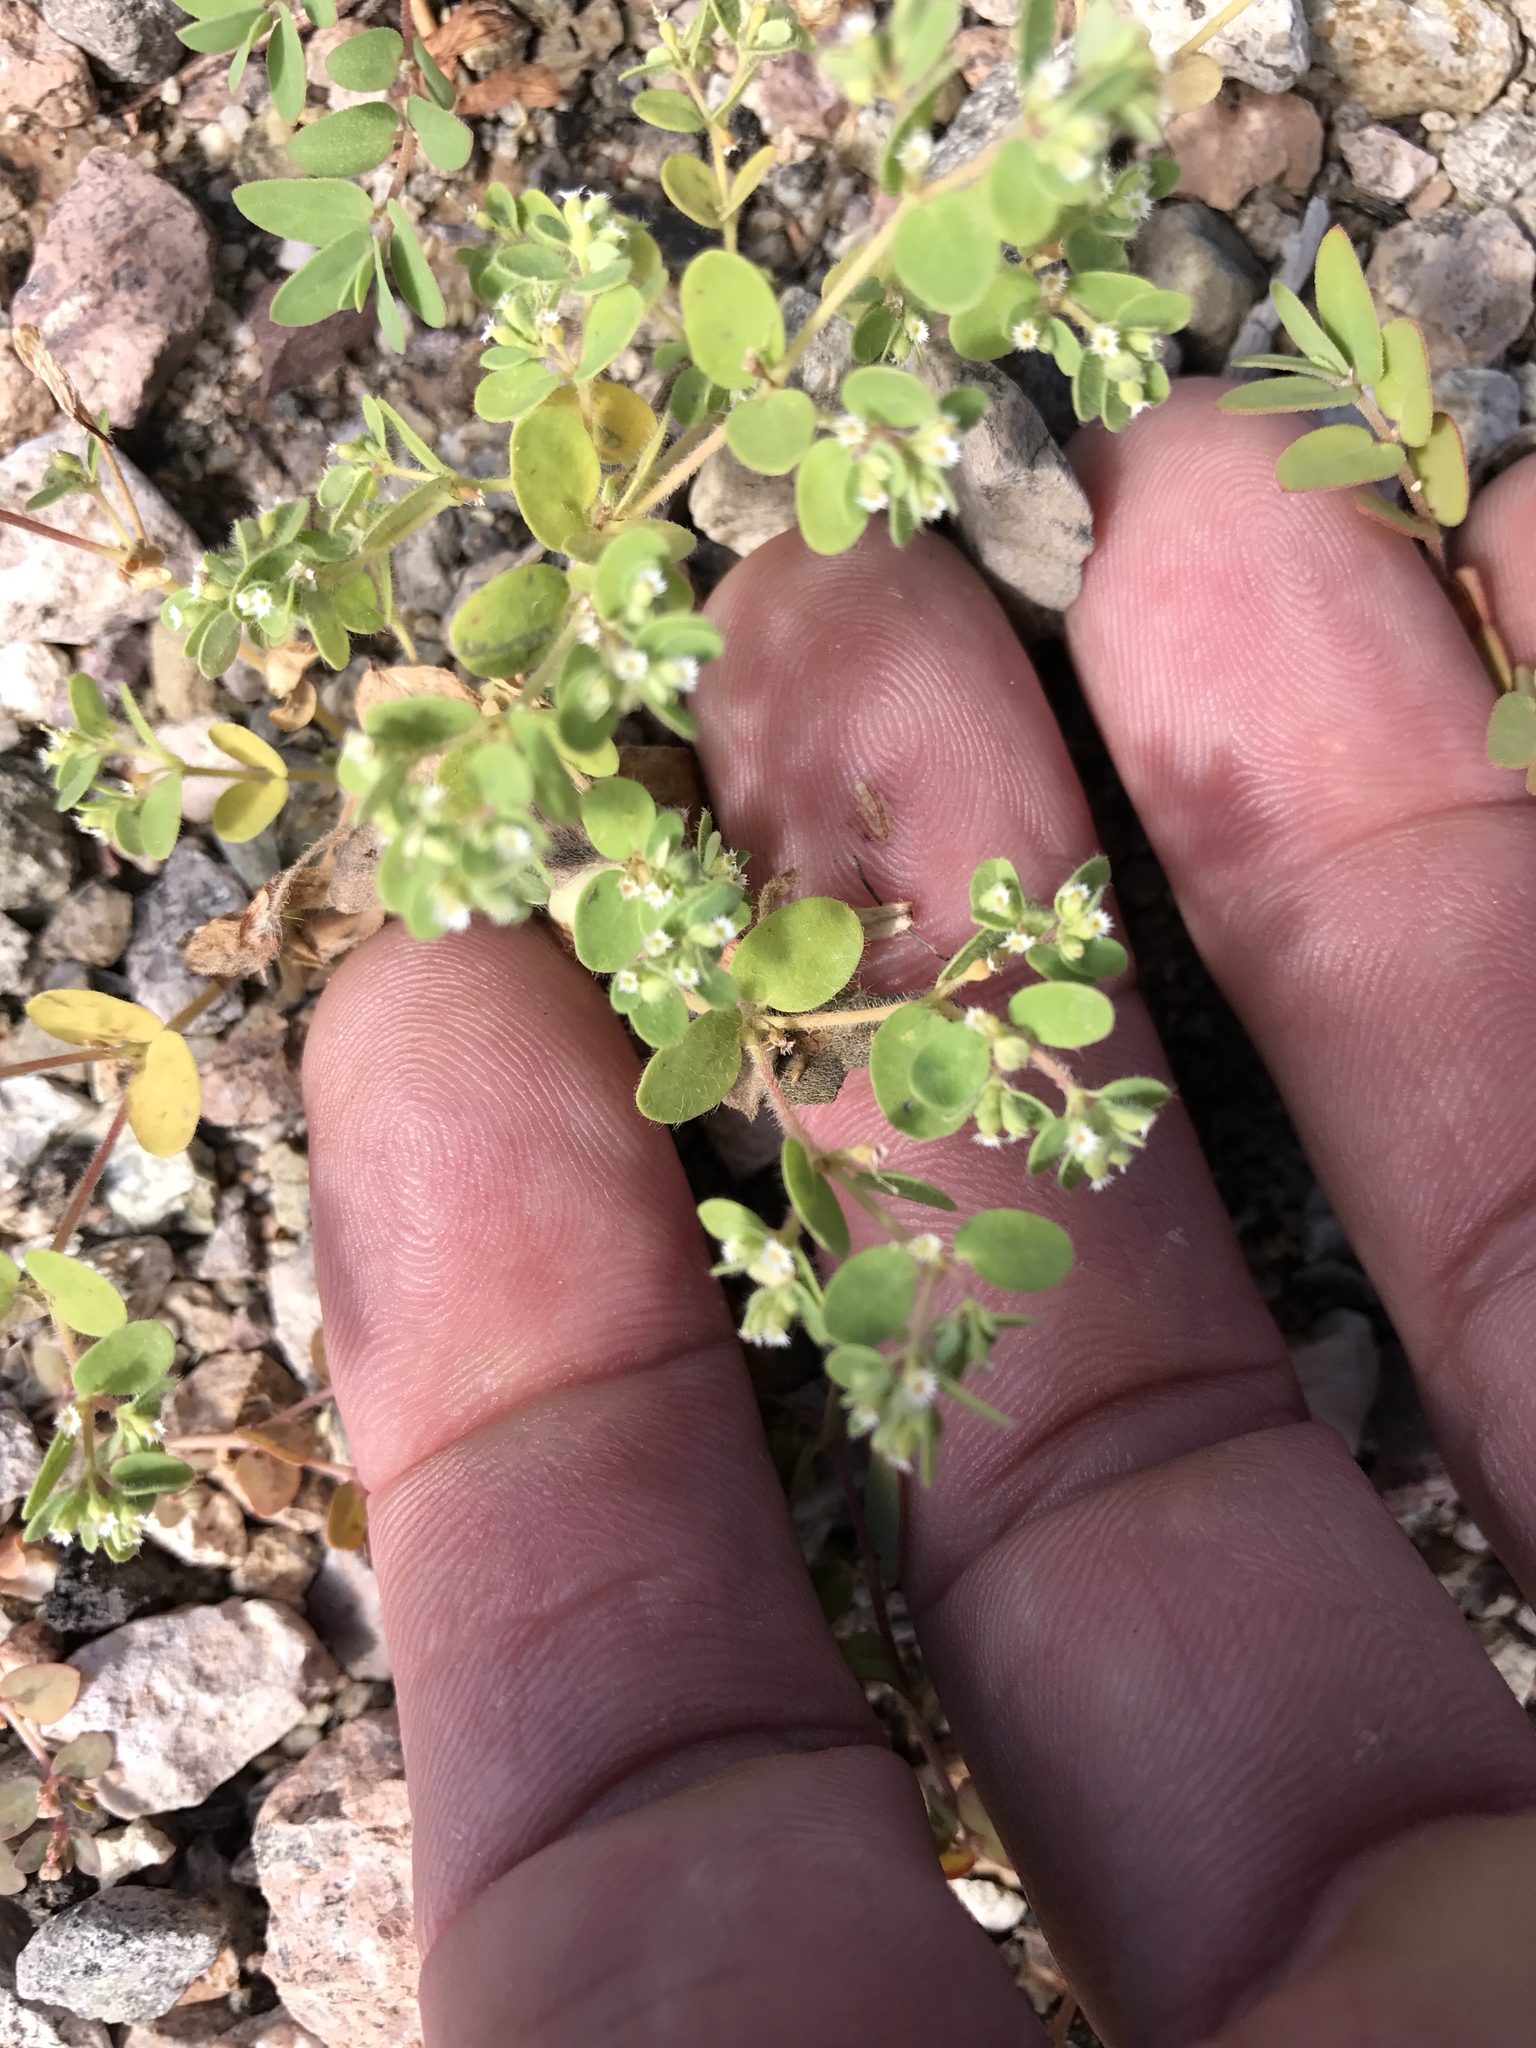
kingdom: Plantae
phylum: Tracheophyta
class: Magnoliopsida
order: Malpighiales
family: Euphorbiaceae
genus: Euphorbia
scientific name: Euphorbia setiloba
